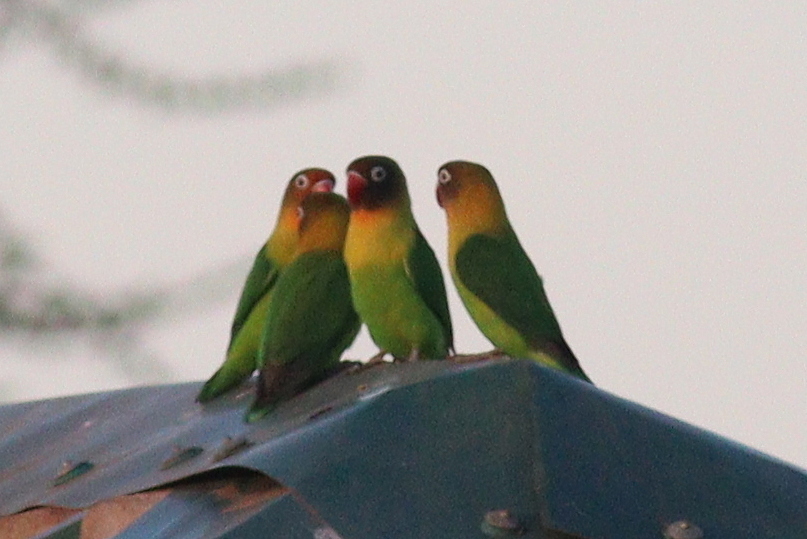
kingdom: Animalia
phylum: Chordata
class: Aves
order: Psittaciformes
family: Psittacidae
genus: Agapornis
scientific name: Agapornis
